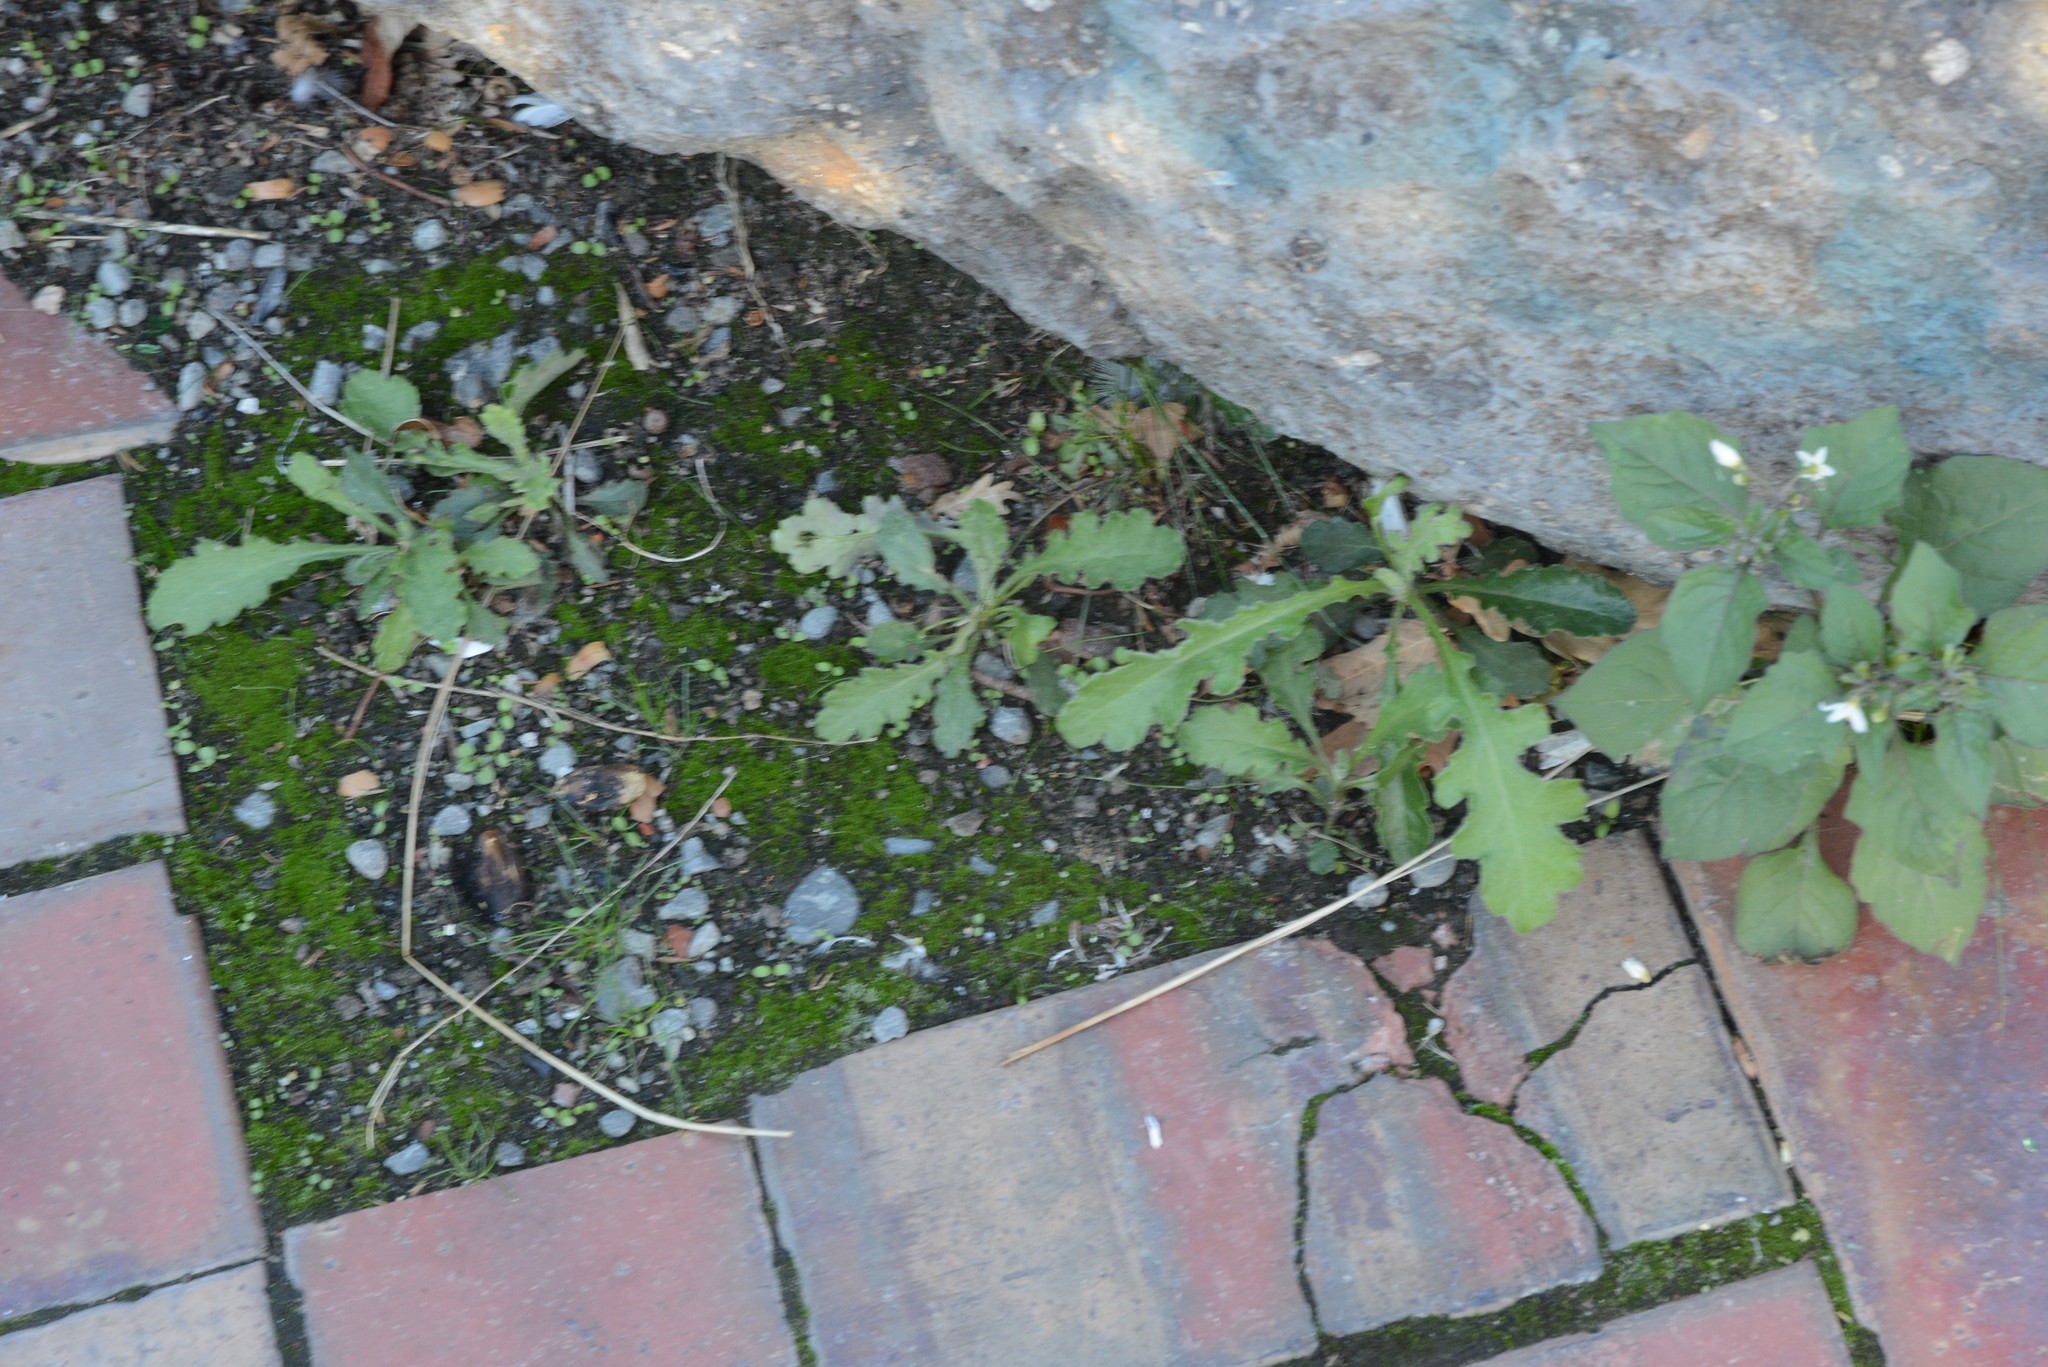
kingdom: Plantae
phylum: Tracheophyta
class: Magnoliopsida
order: Asterales
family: Asteraceae
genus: Senecio
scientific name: Senecio glomeratus
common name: Cutleaf burnweed
